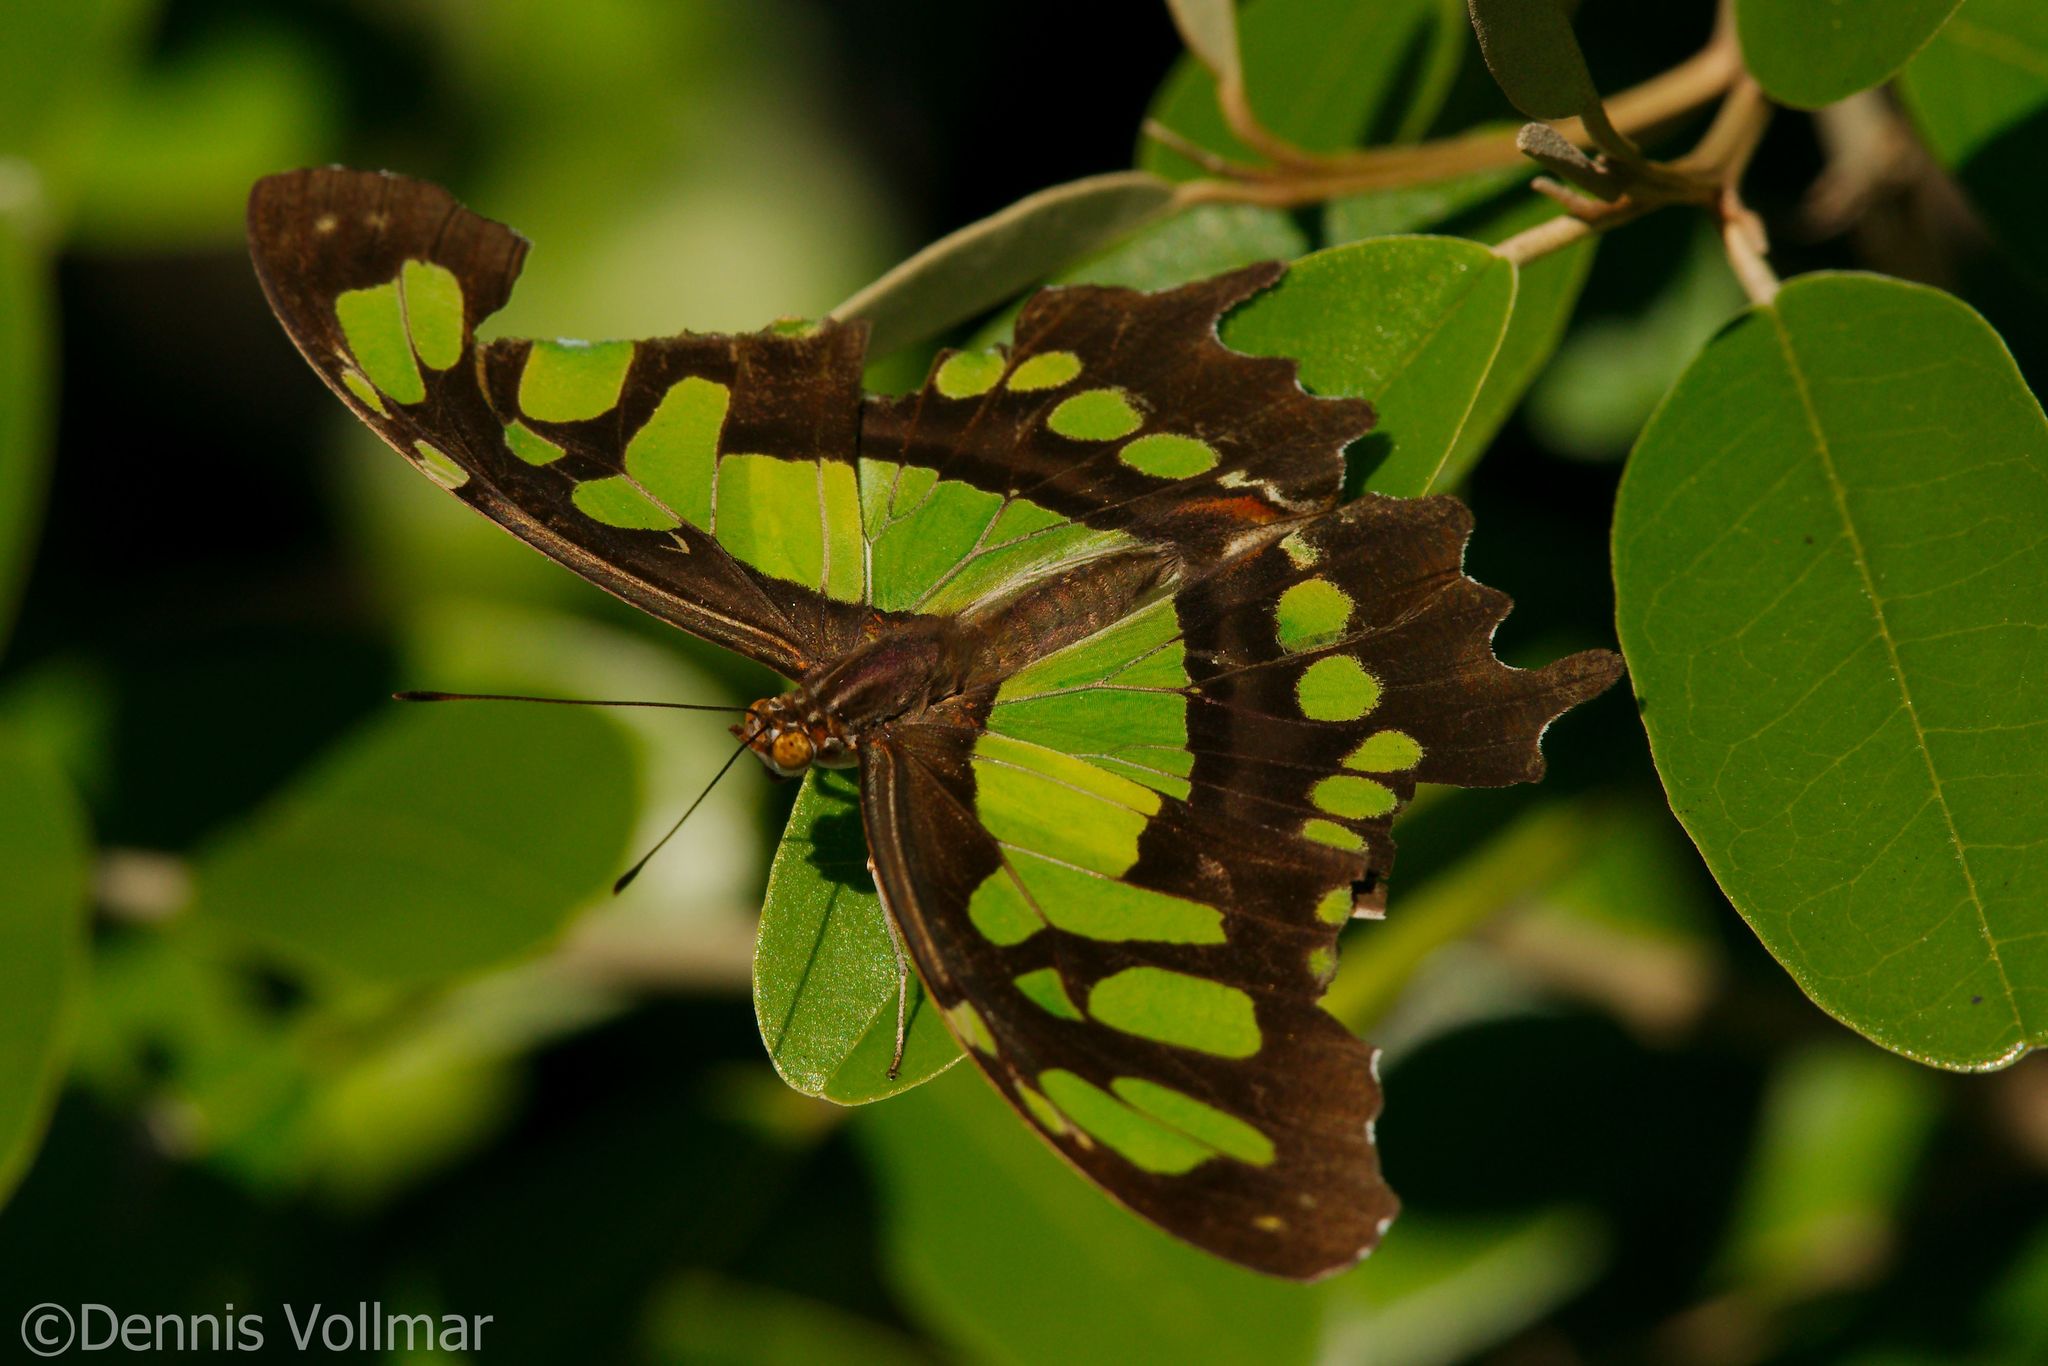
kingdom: Animalia
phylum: Arthropoda
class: Insecta
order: Lepidoptera
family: Nymphalidae
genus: Siproeta
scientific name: Siproeta stelenes
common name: Malachite
